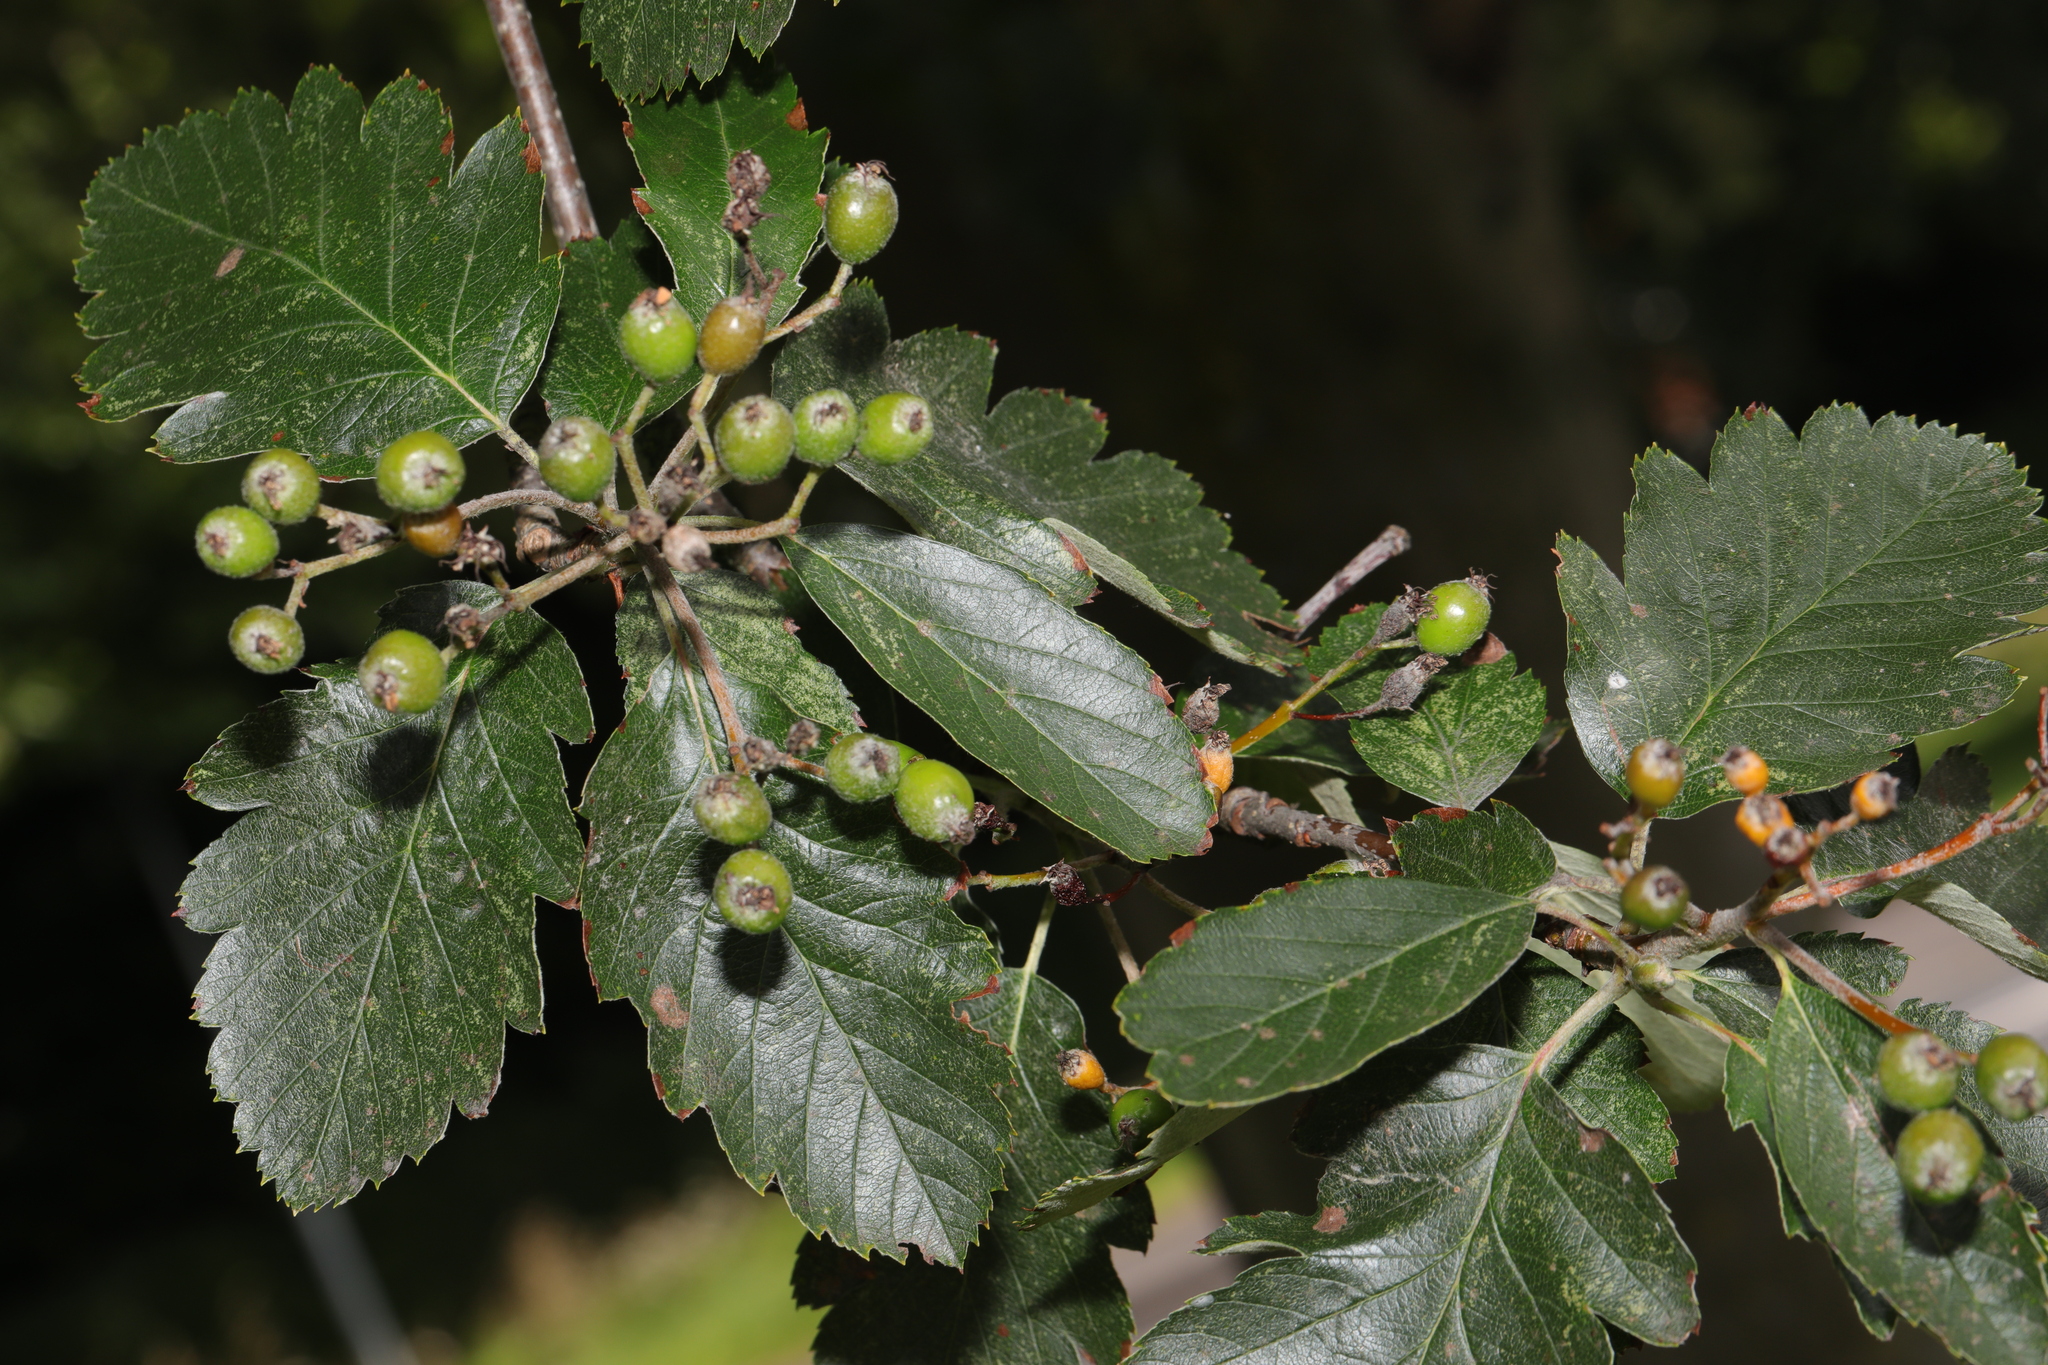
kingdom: Plantae
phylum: Tracheophyta
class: Magnoliopsida
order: Rosales
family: Rosaceae
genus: Scandosorbus
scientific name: Scandosorbus intermedia
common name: Swedish whitebeam
